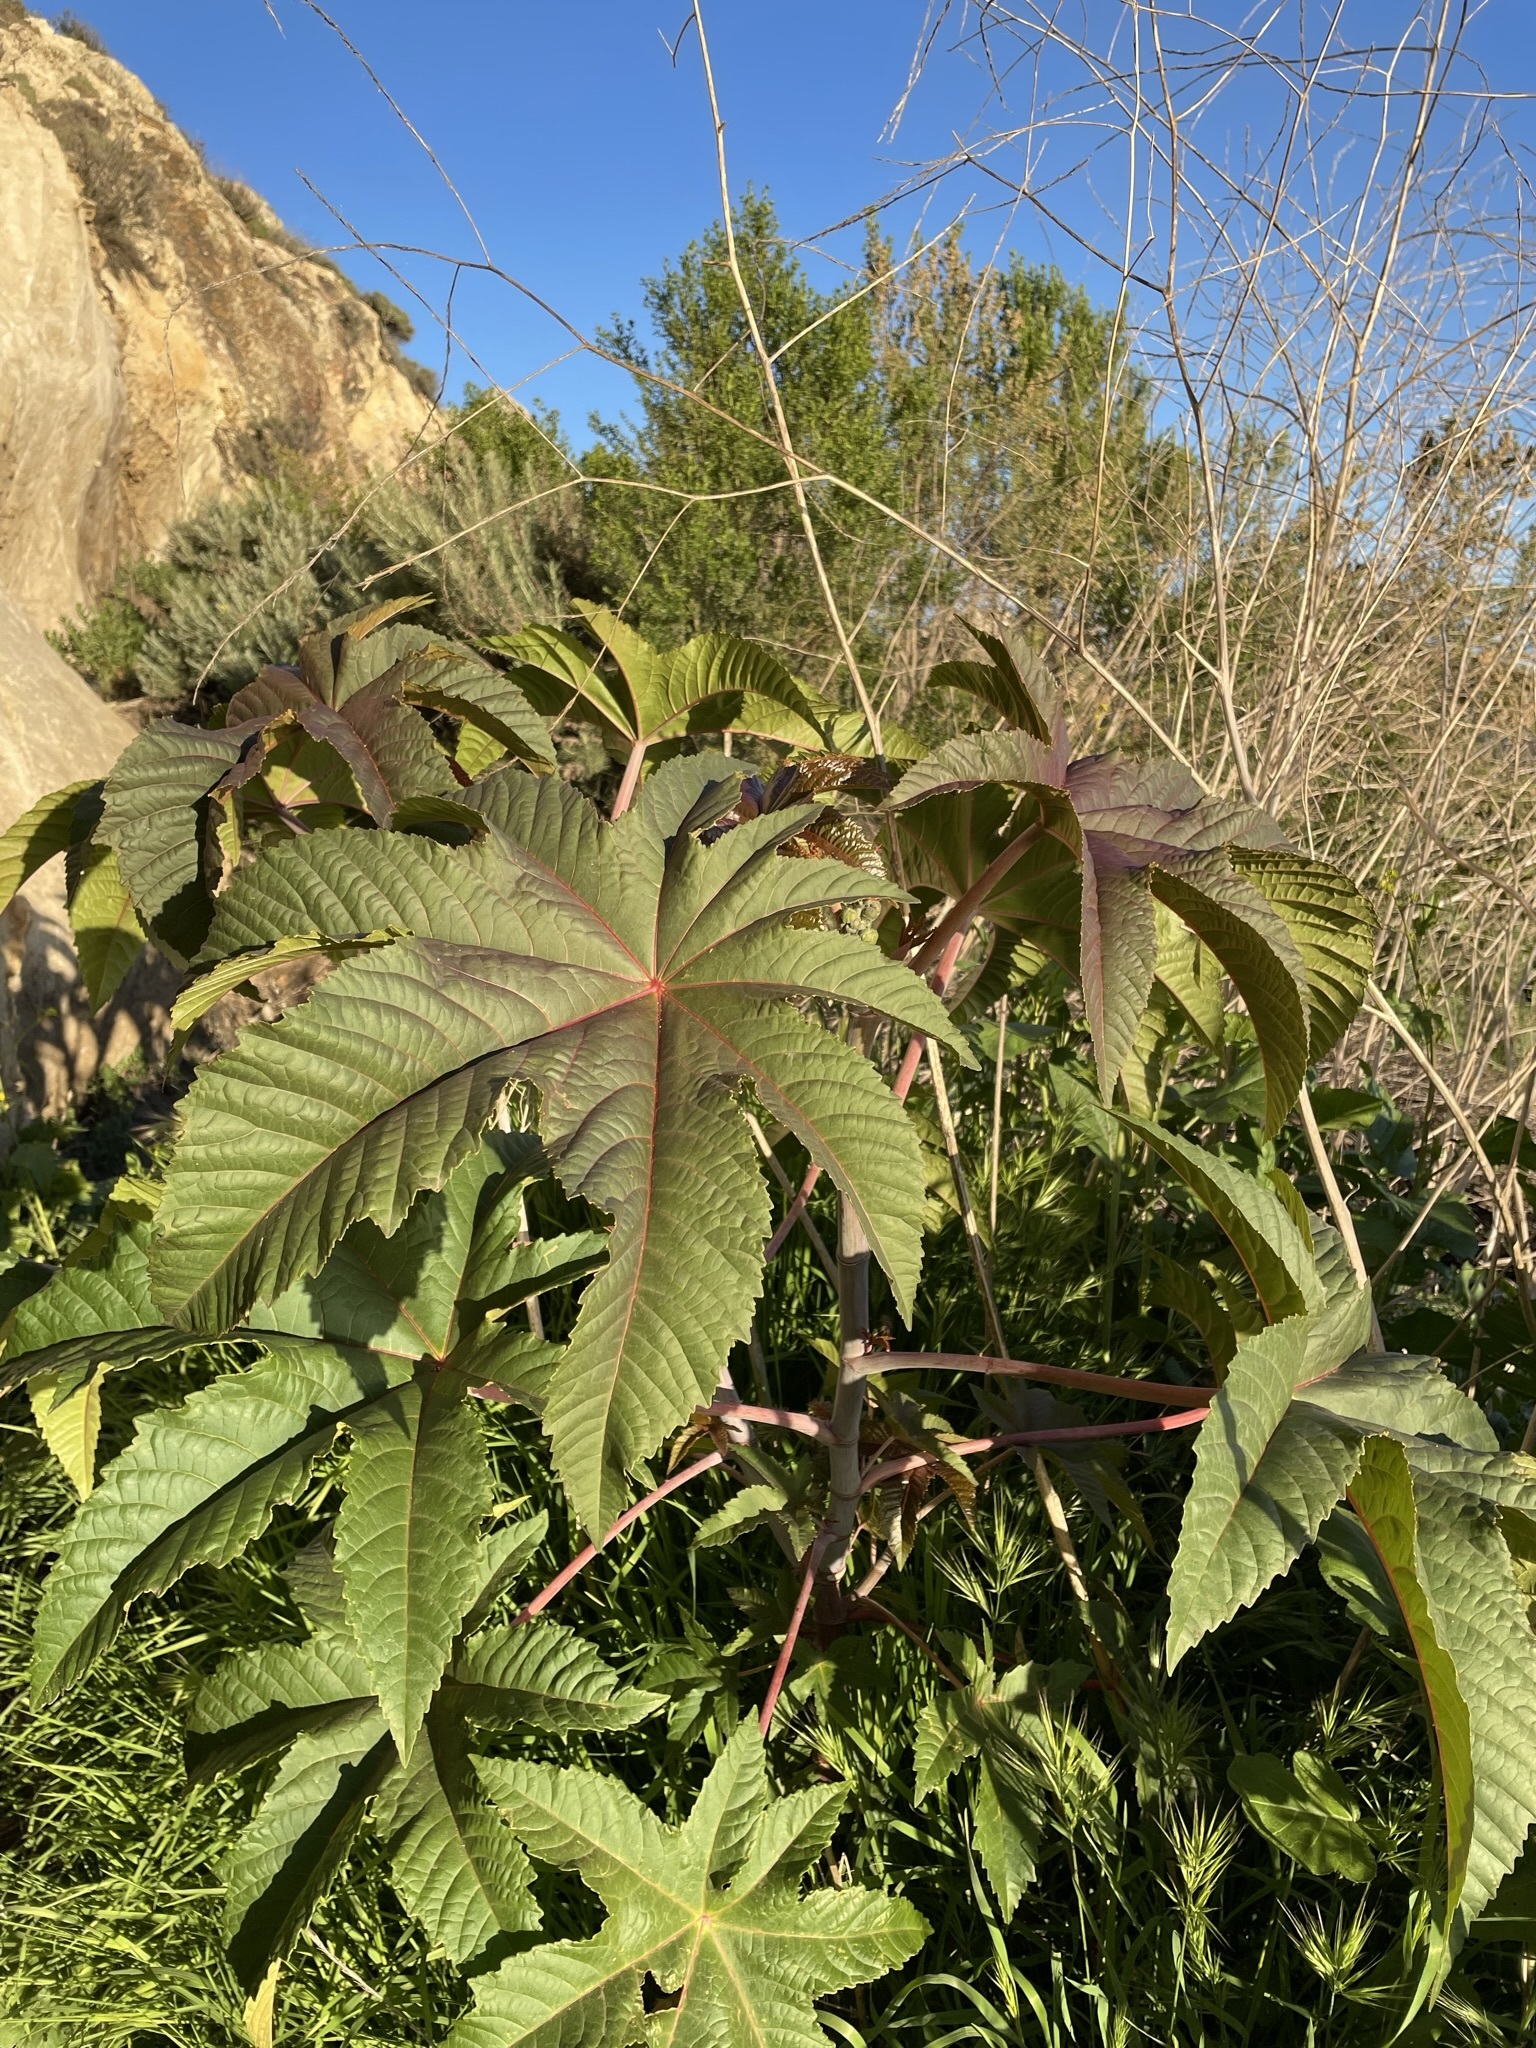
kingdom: Plantae
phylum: Tracheophyta
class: Magnoliopsida
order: Malpighiales
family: Euphorbiaceae
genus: Ricinus
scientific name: Ricinus communis
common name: Castor-oil-plant
